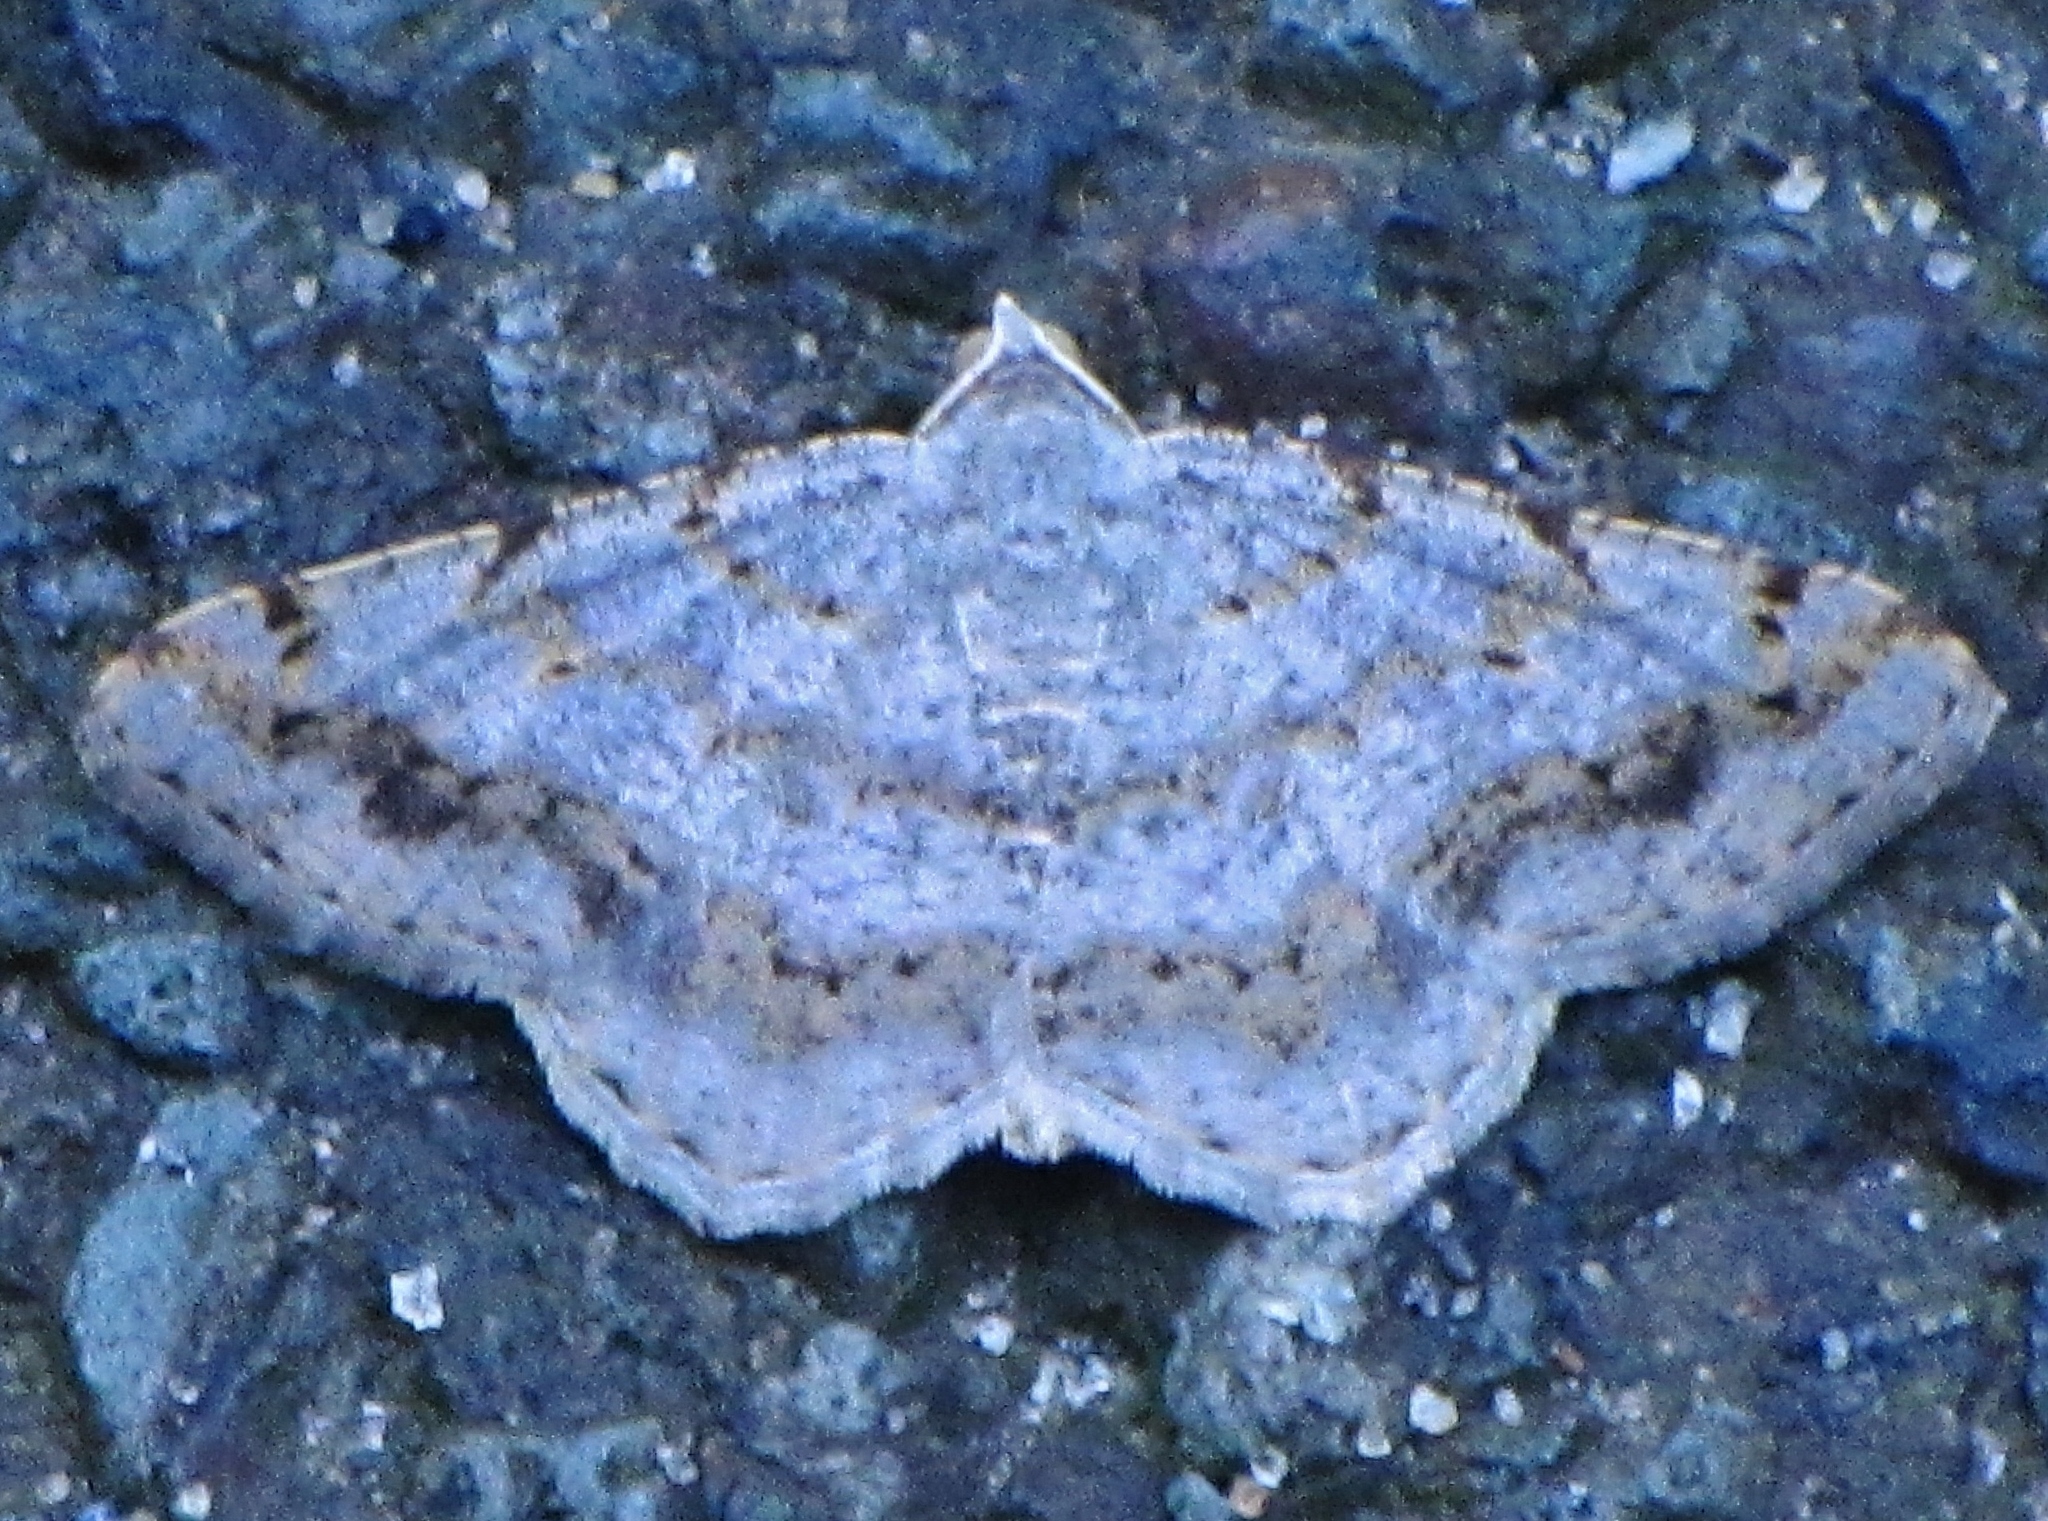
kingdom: Animalia
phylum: Arthropoda
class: Insecta
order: Lepidoptera
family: Geometridae
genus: Digrammia
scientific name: Digrammia ocellinata
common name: Faint-spotted angle
